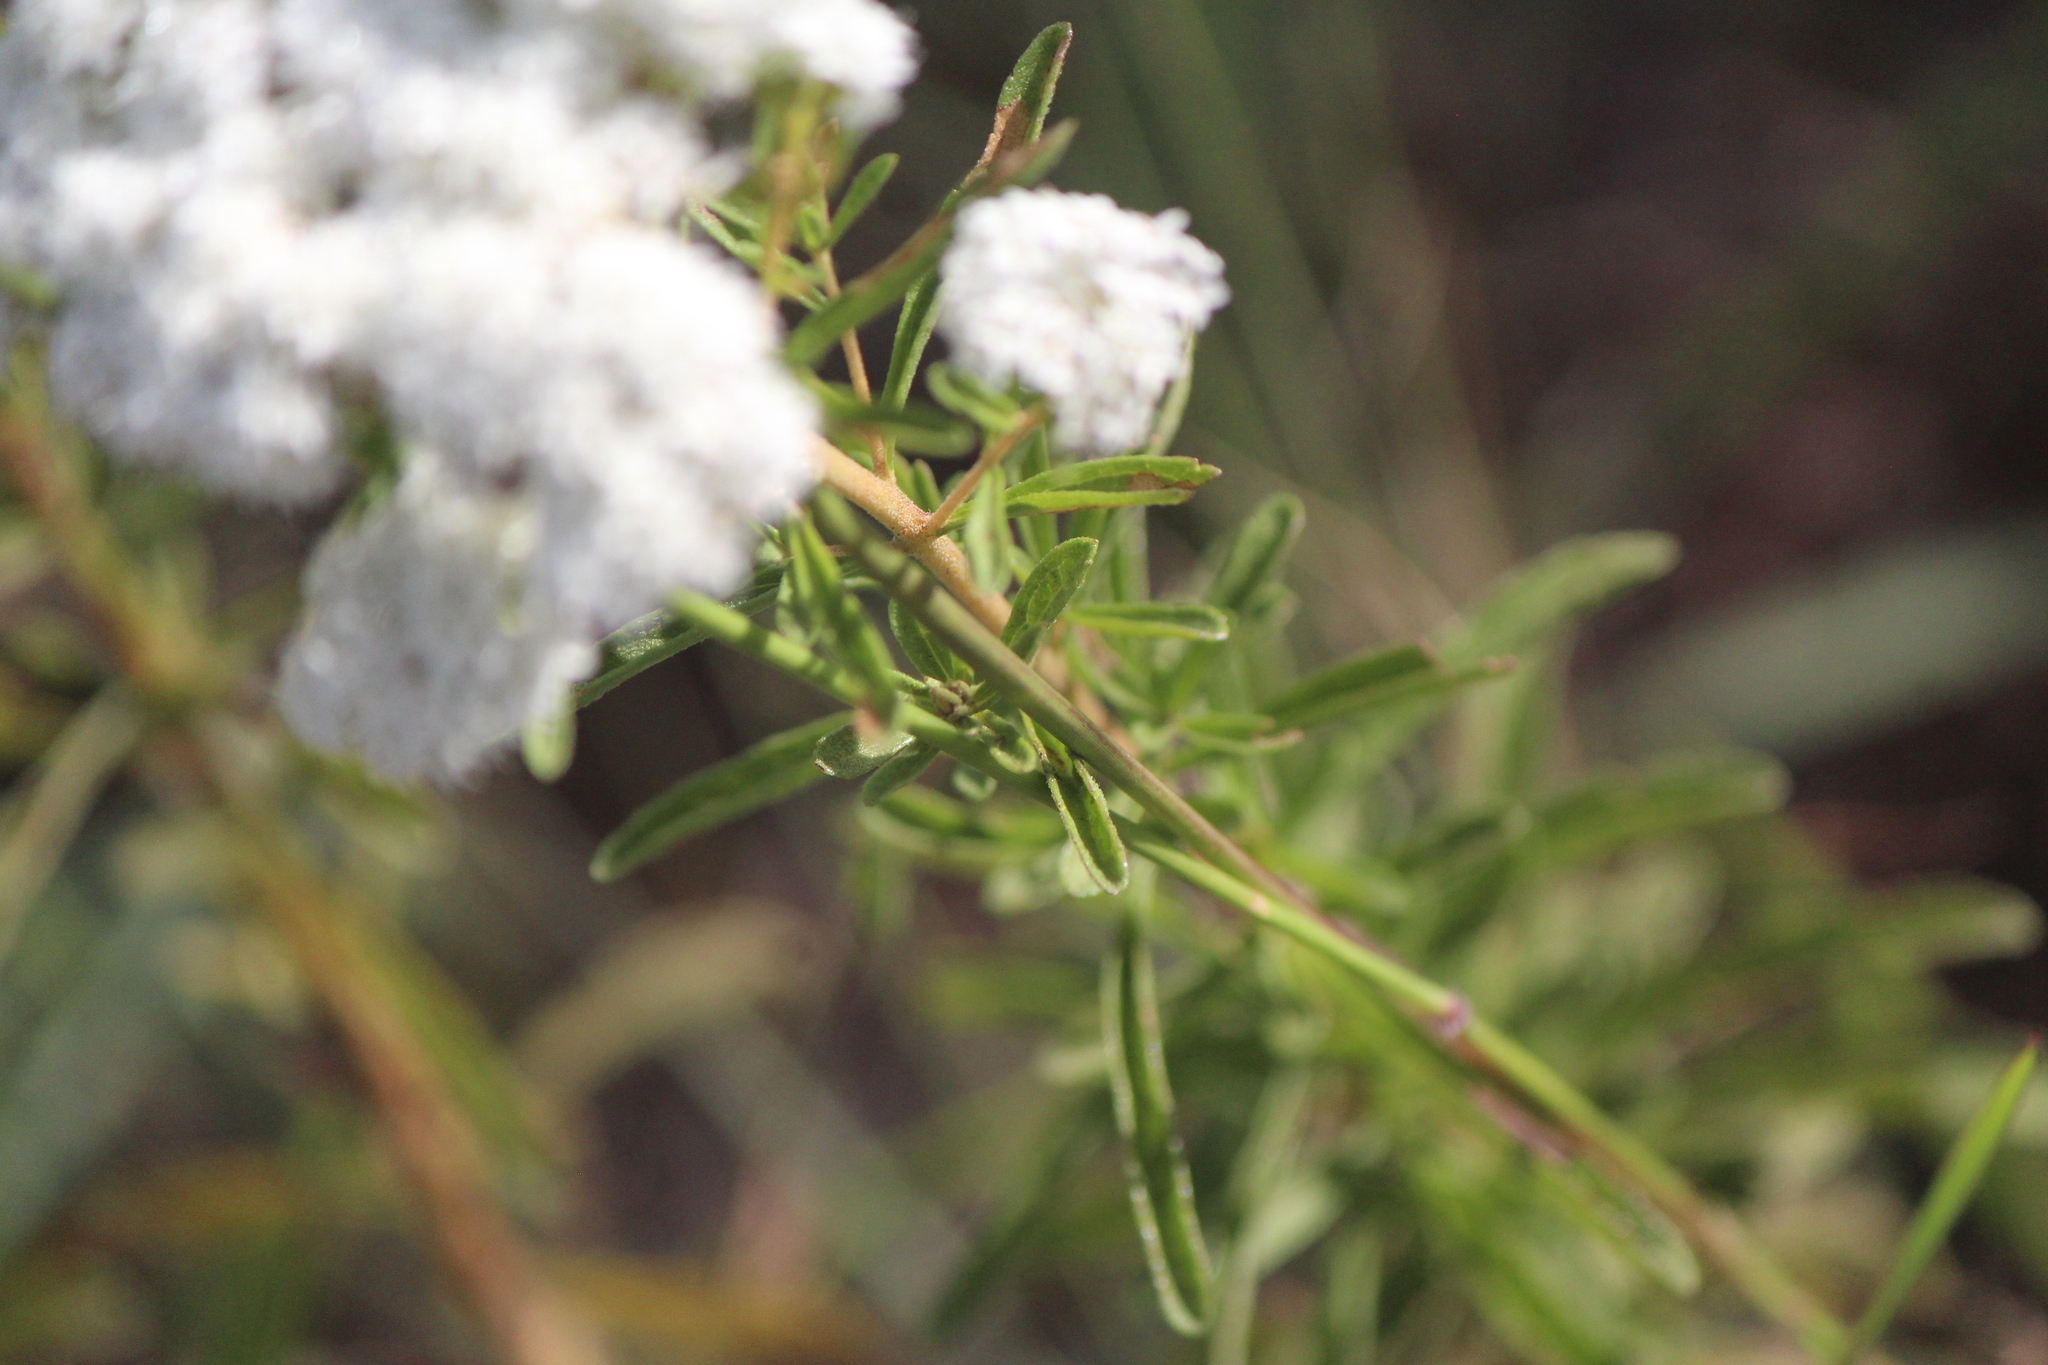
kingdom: Plantae
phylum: Tracheophyta
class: Magnoliopsida
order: Asterales
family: Asteraceae
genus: Stevia
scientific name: Stevia serrata
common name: Sawtooth candyleaf
